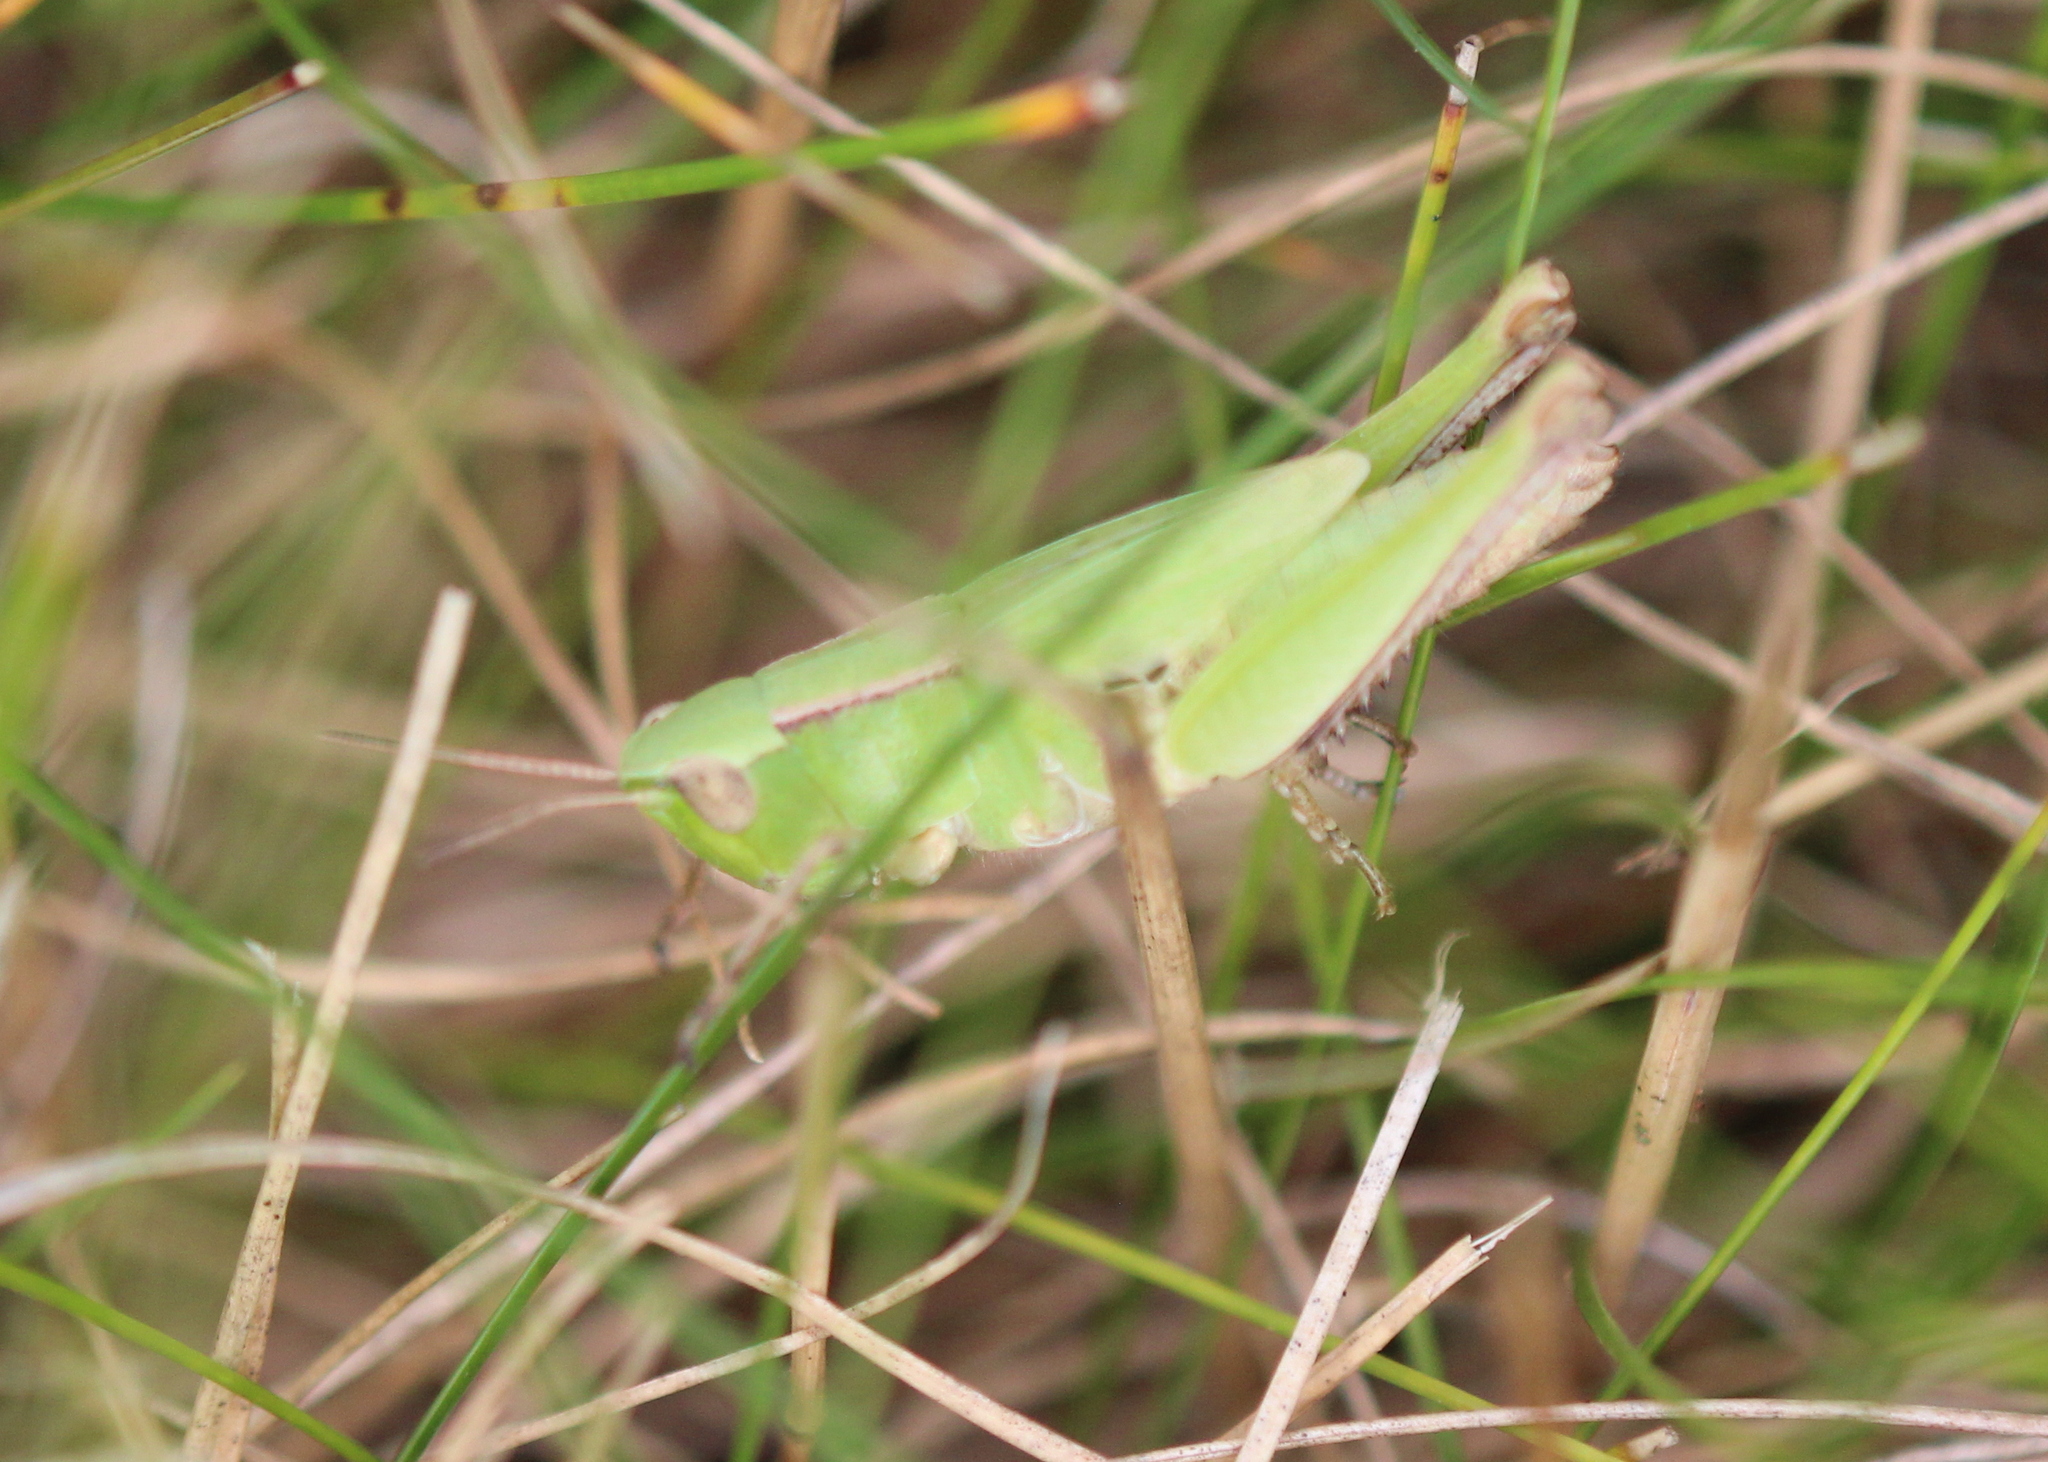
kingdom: Animalia
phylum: Arthropoda
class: Insecta
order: Orthoptera
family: Acrididae
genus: Dichromorpha
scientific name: Dichromorpha viridis
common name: Short-winged green grasshopper
